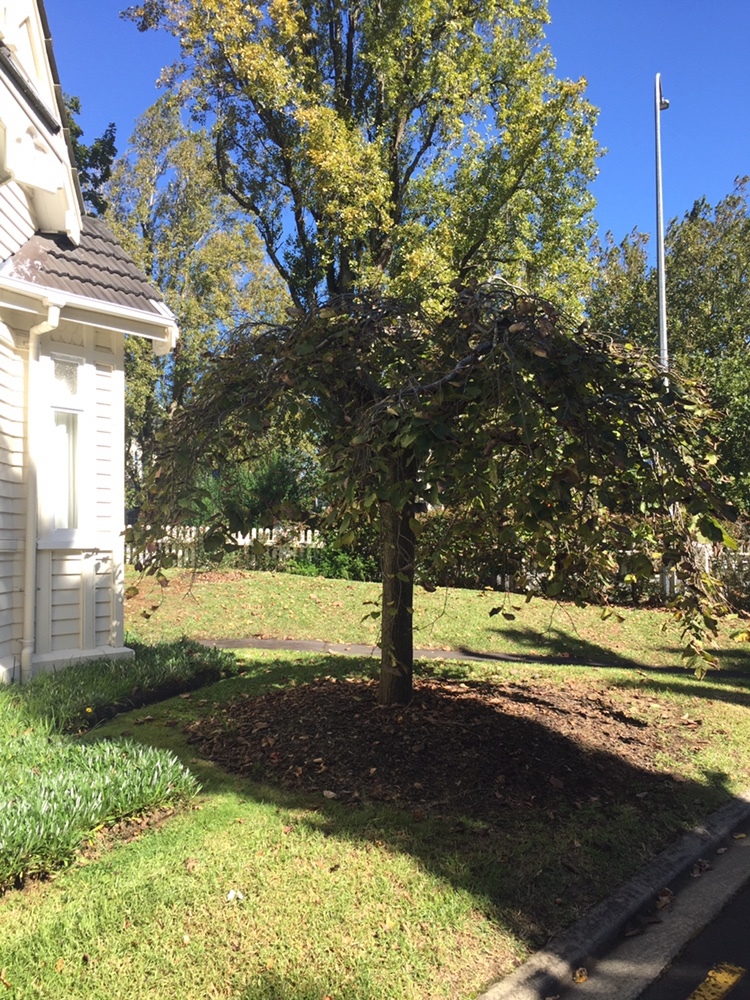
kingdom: Fungi
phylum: Ascomycota
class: Dothideomycetes
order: Mycosphaerellales
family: Mycosphaerellaceae
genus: Mycosphaerella
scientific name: Mycosphaerella ulmi
